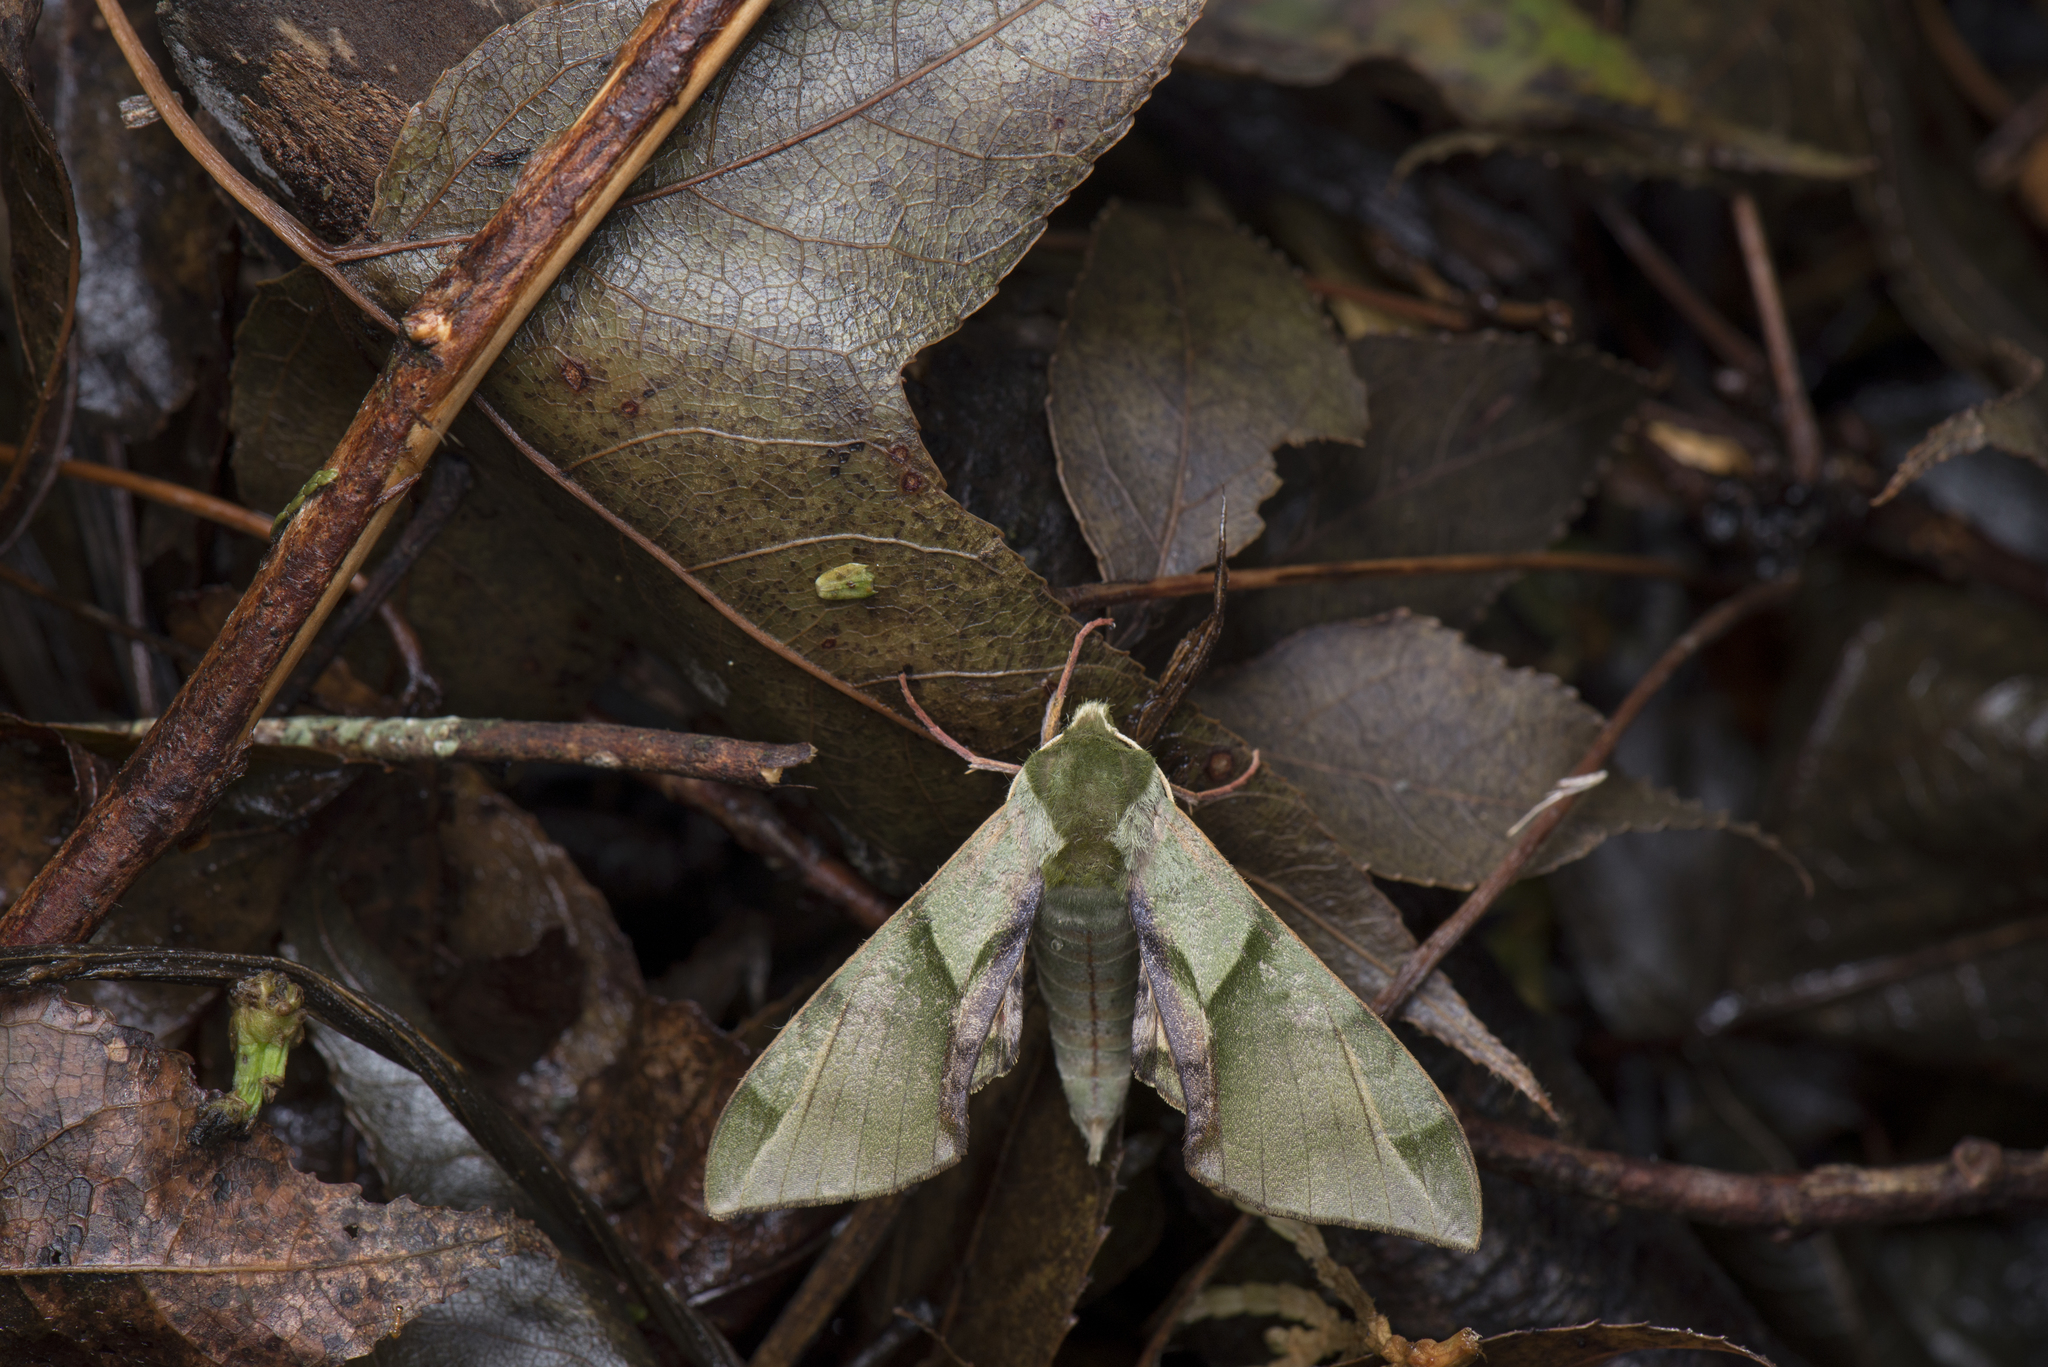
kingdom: Animalia
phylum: Arthropoda
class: Insecta
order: Lepidoptera
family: Sphingidae
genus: Callambulyx
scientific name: Callambulyx tatarinovii
